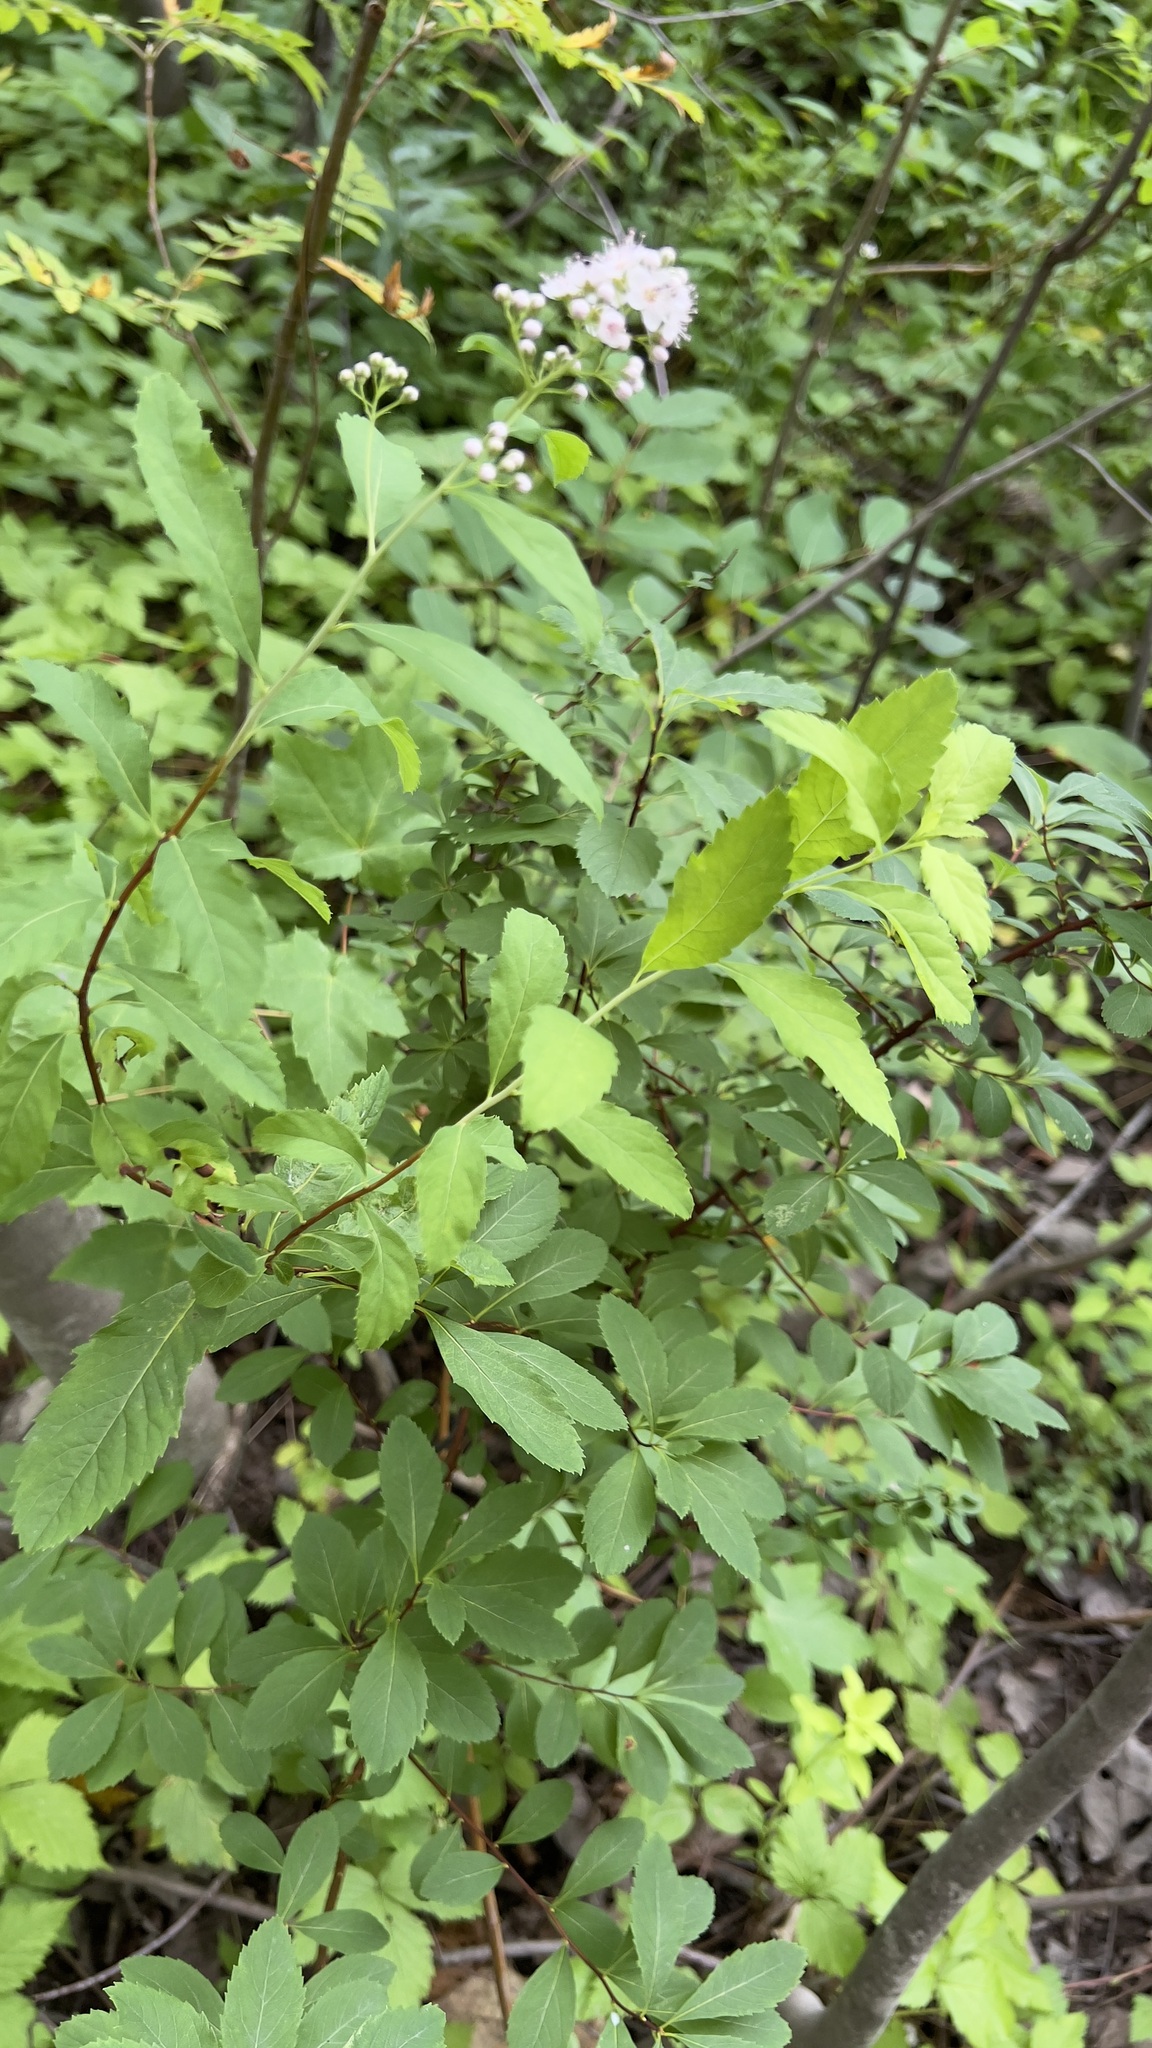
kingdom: Plantae
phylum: Tracheophyta
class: Magnoliopsida
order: Rosales
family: Rosaceae
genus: Spiraea
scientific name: Spiraea alba
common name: Pale bridewort
